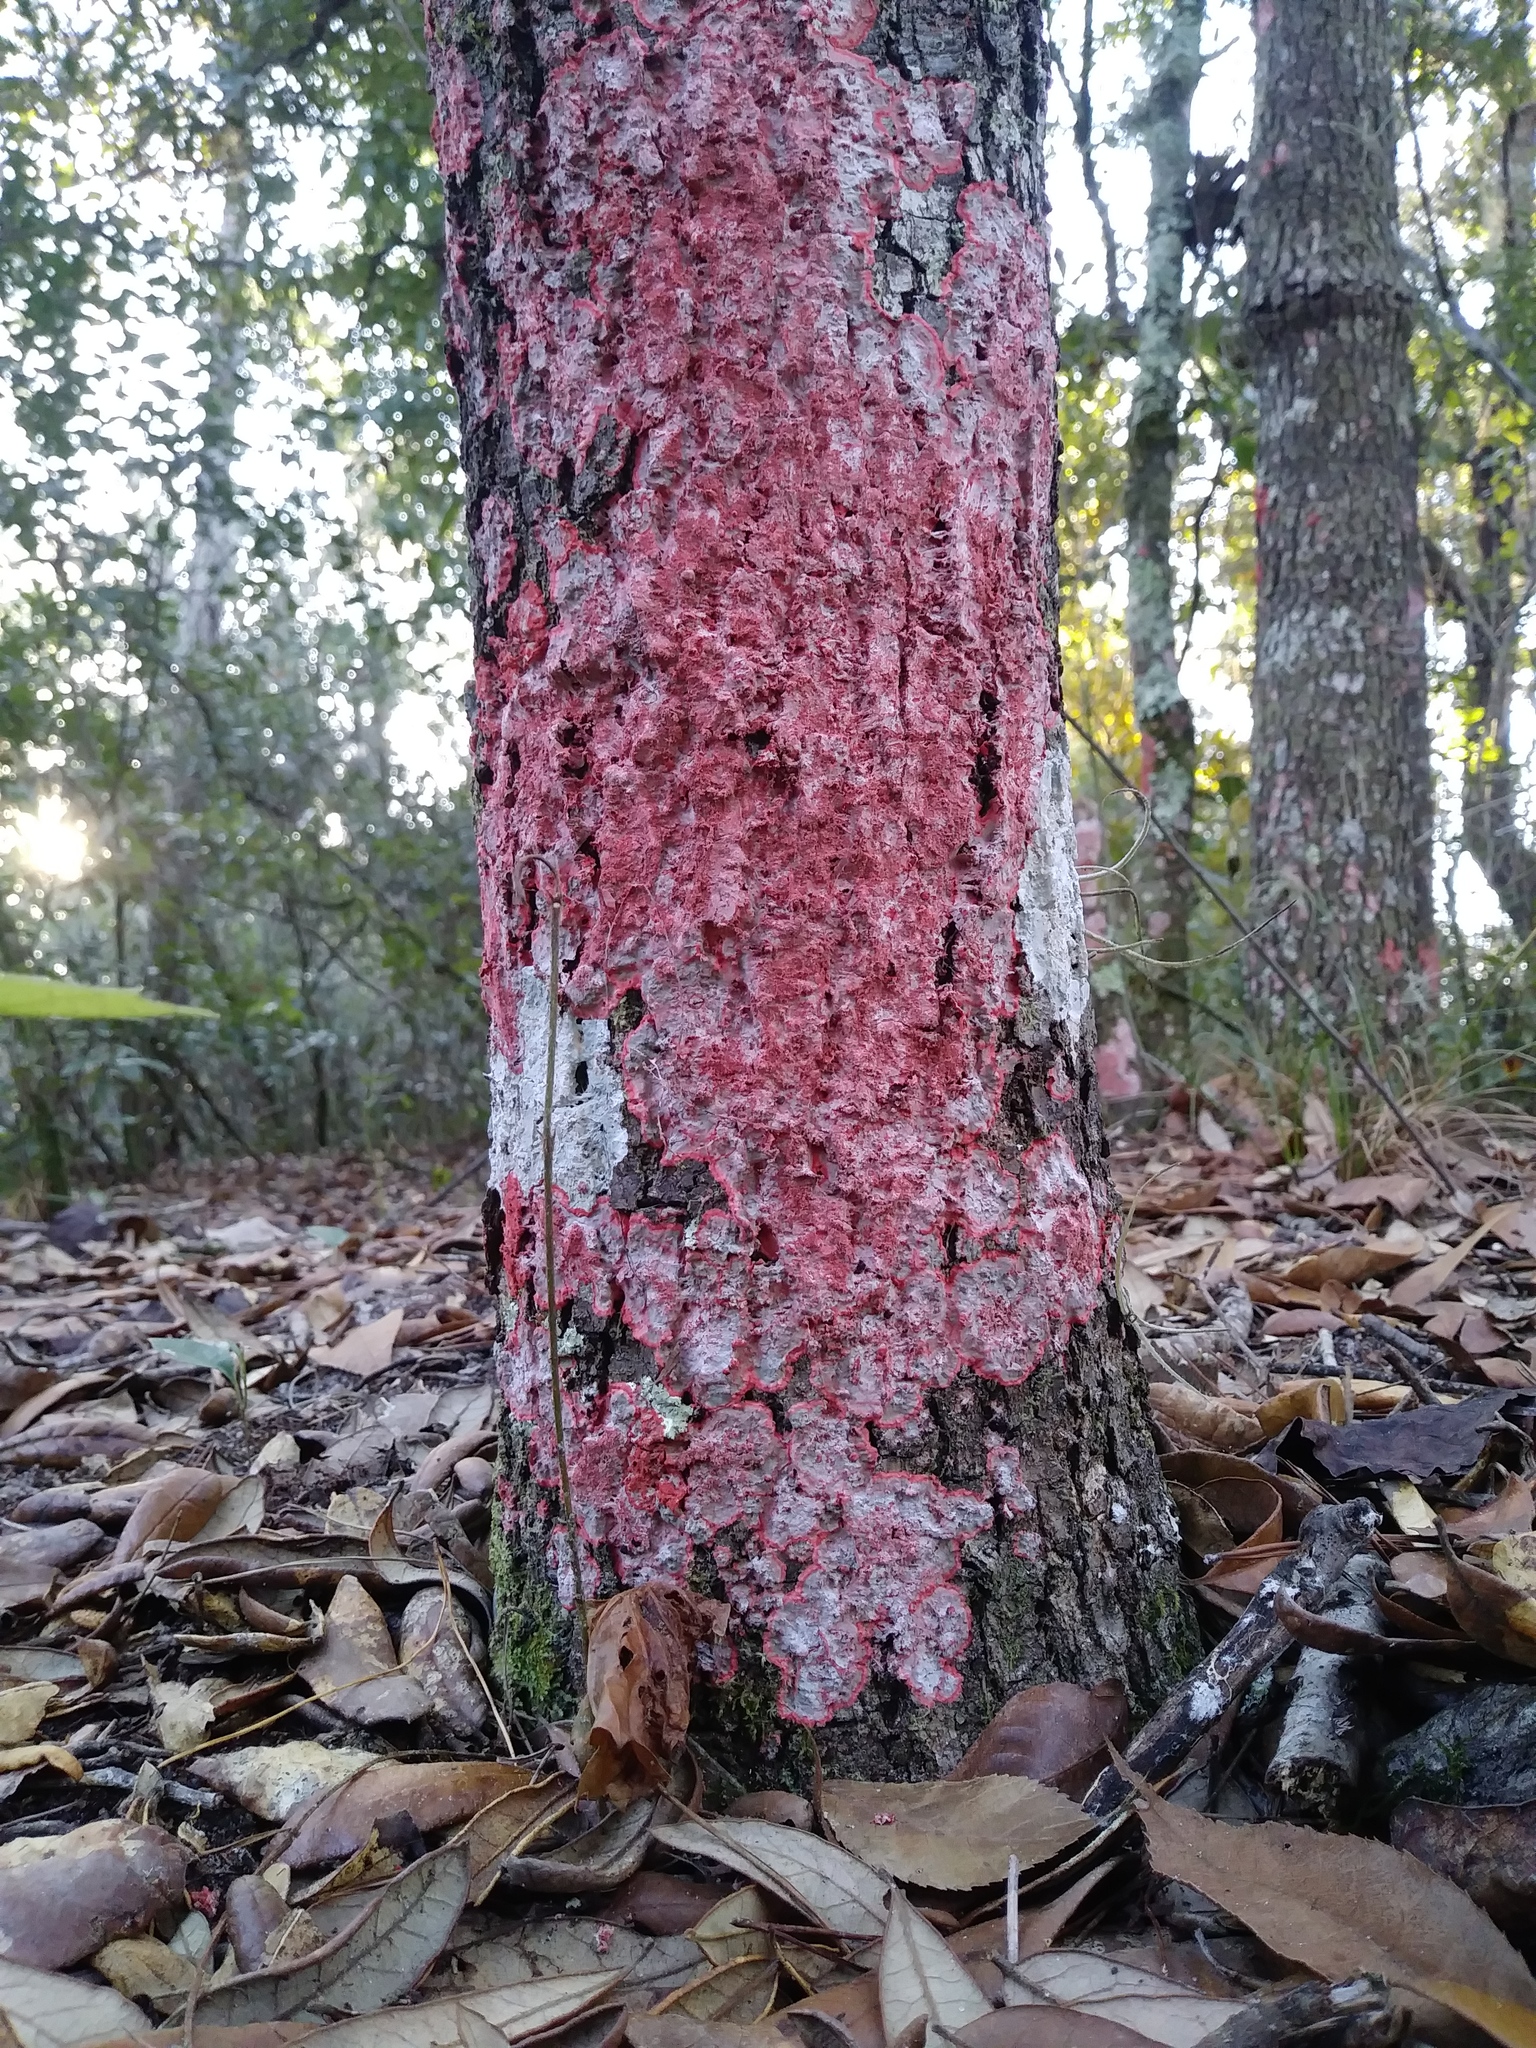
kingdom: Fungi
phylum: Ascomycota
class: Arthoniomycetes
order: Arthoniales
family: Arthoniaceae
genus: Herpothallon
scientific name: Herpothallon rubrocinctum
